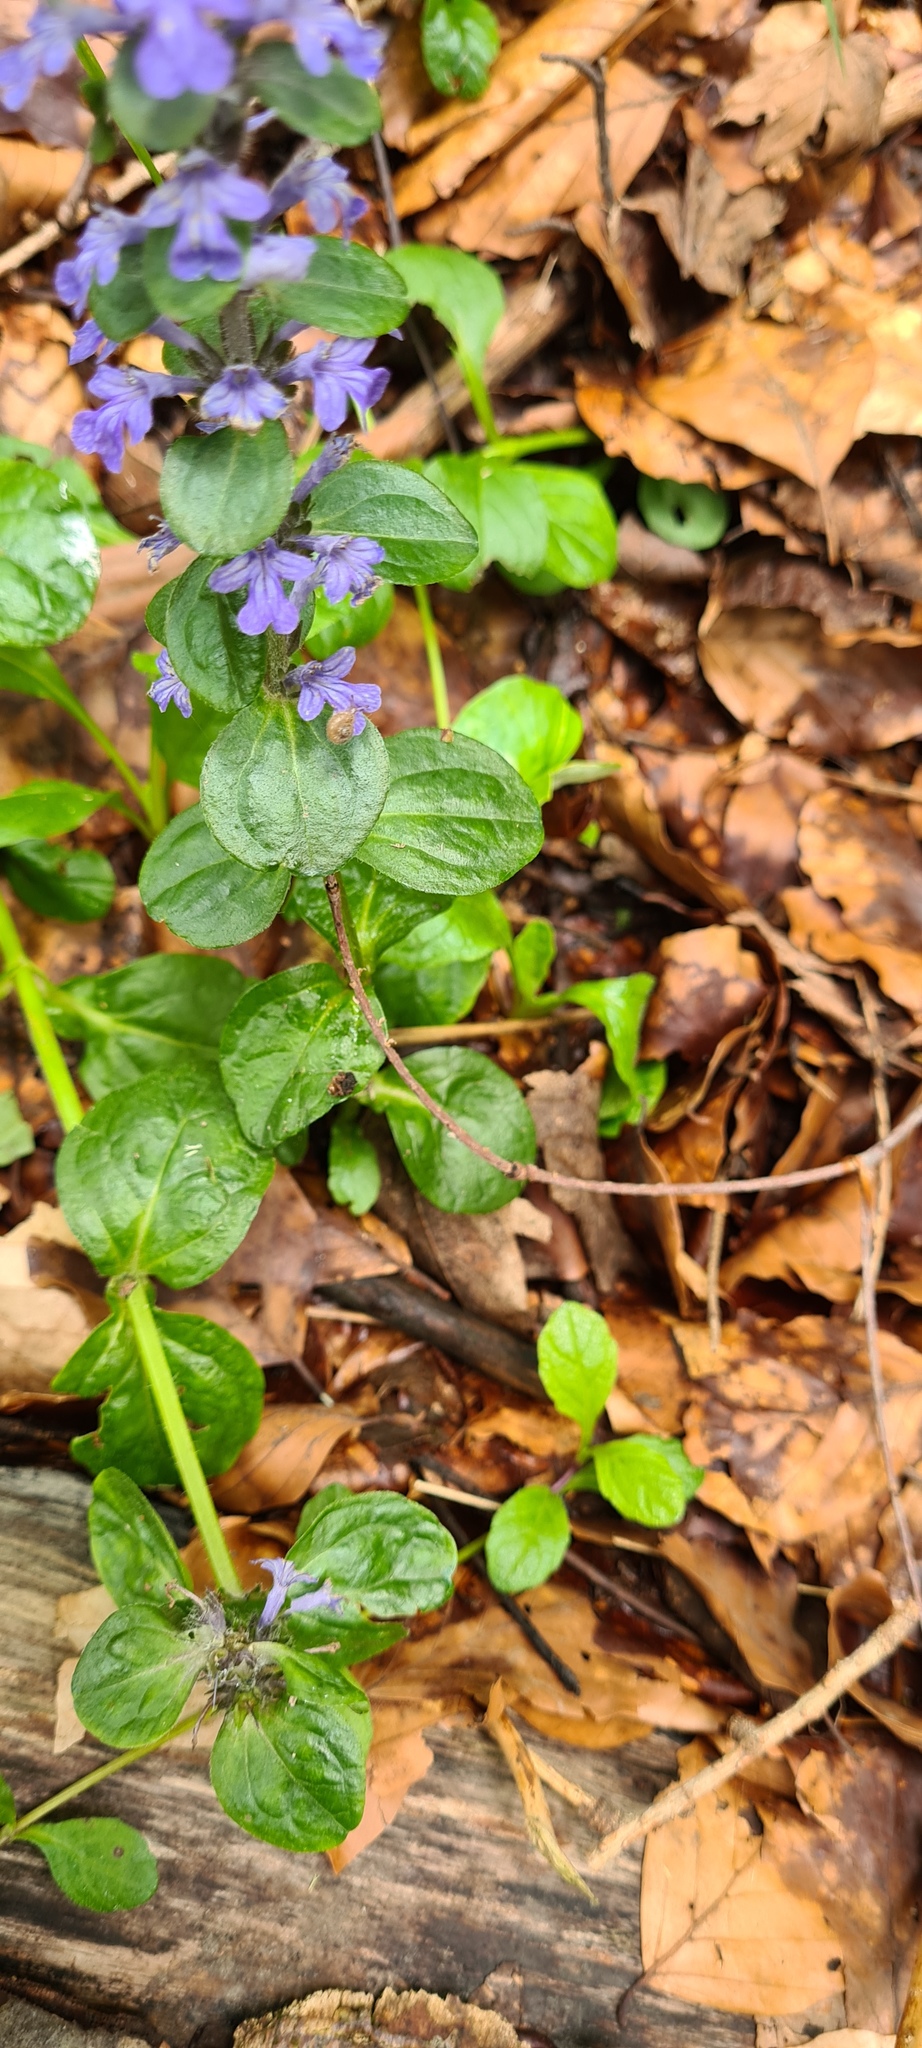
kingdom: Plantae
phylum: Tracheophyta
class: Magnoliopsida
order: Lamiales
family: Lamiaceae
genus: Ajuga
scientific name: Ajuga reptans
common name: Bugle
